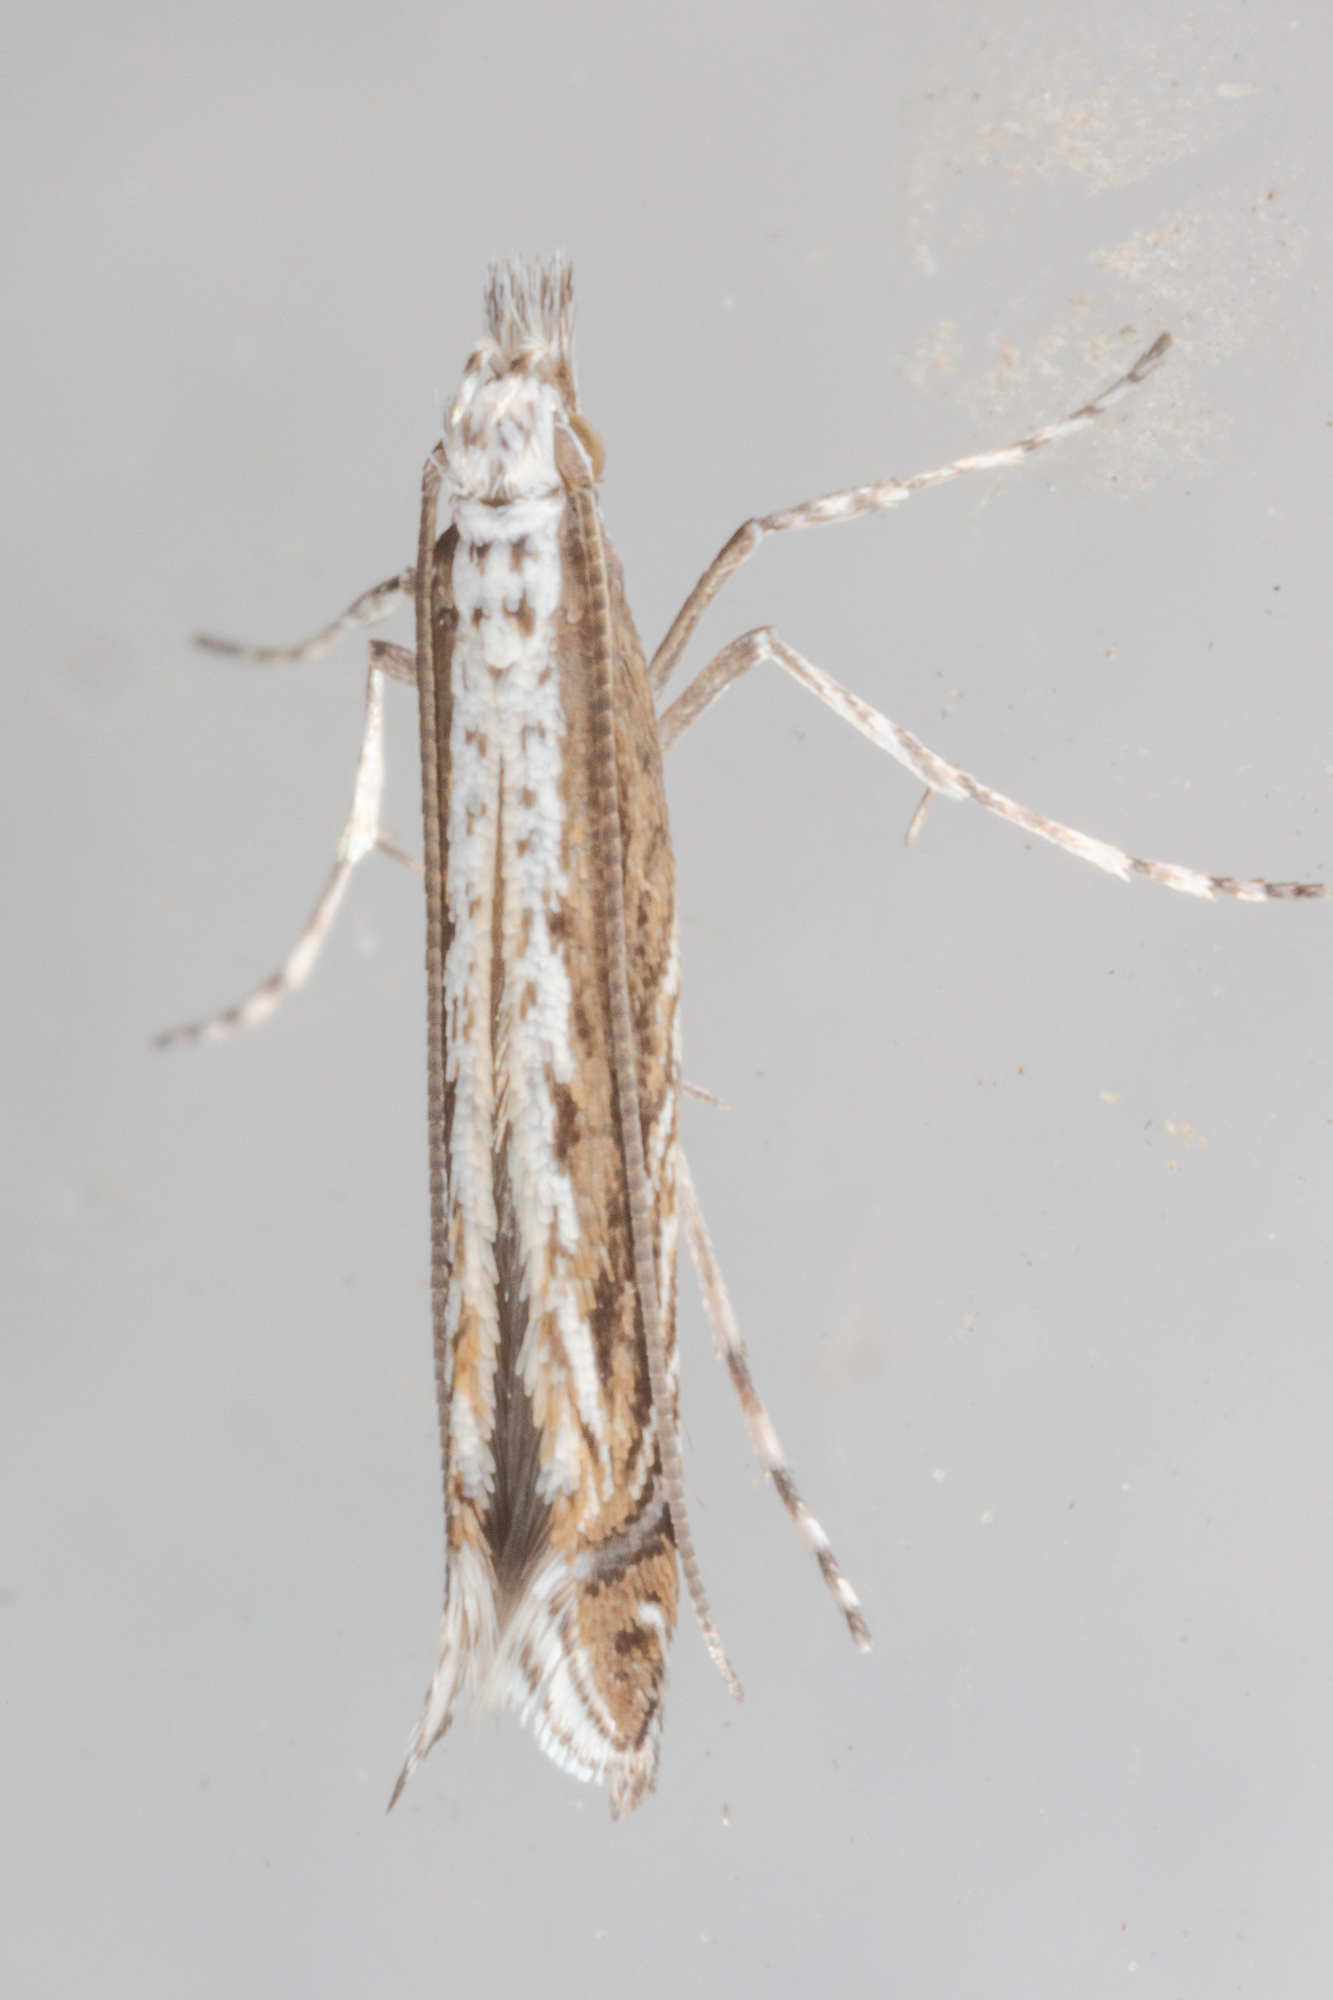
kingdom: Plantae
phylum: Rhodophyta
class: Florideophyceae
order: Gracilariales
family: Gracilariaceae
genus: Gracilaria
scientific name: Gracilaria
